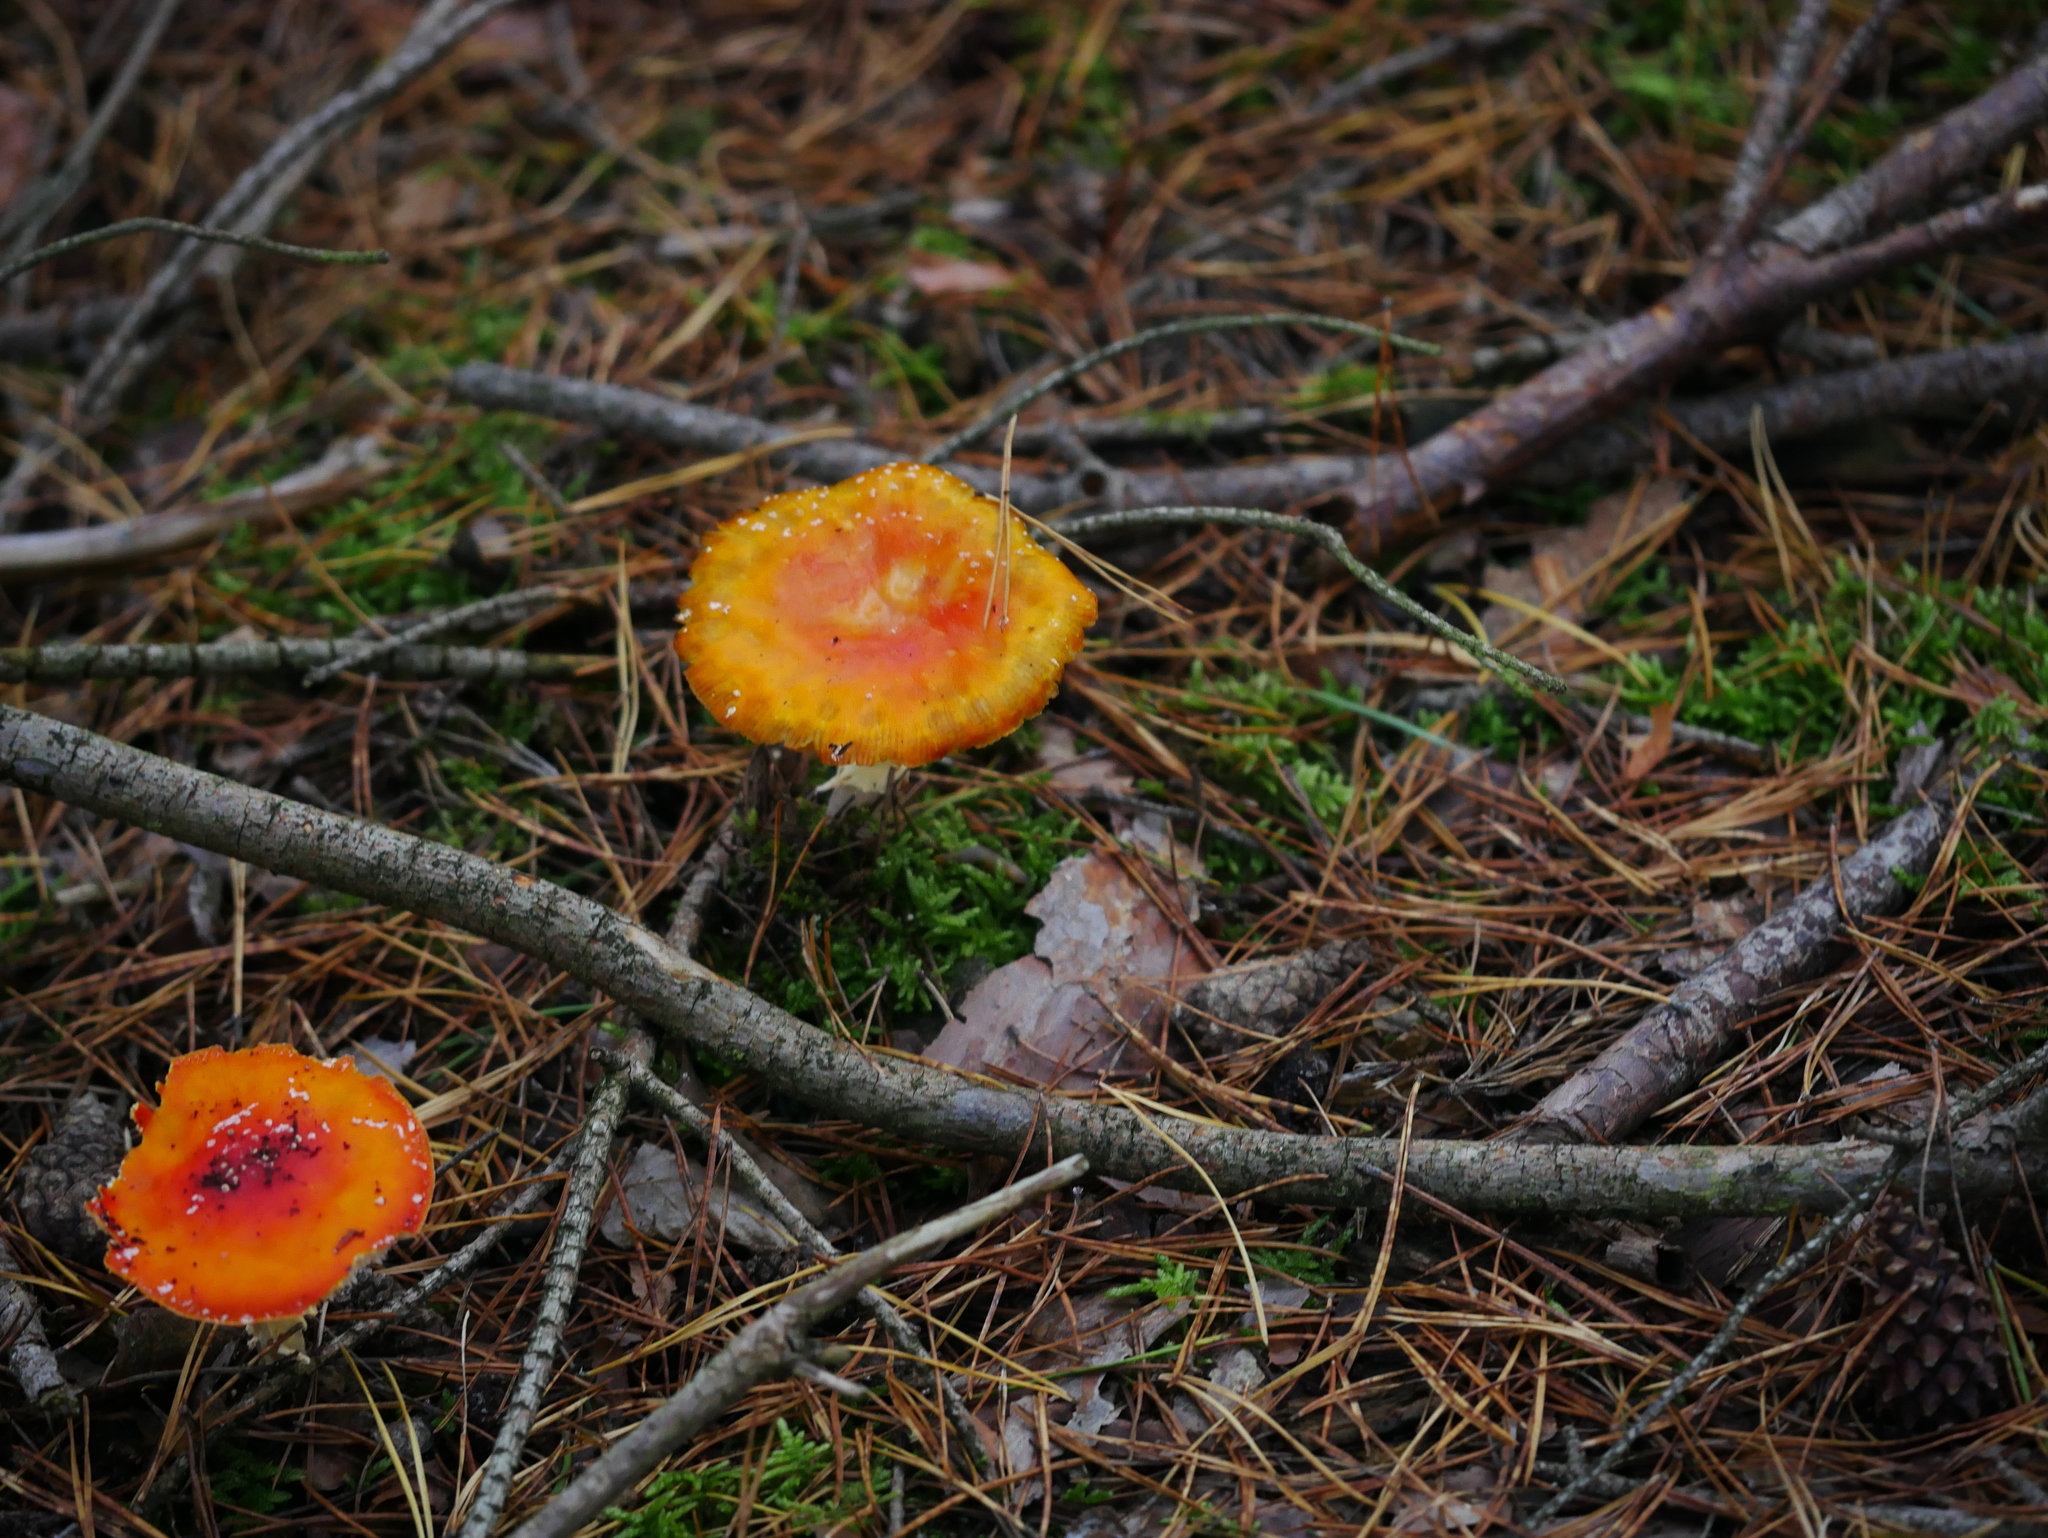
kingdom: Fungi
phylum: Basidiomycota
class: Agaricomycetes
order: Agaricales
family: Amanitaceae
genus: Amanita
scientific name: Amanita muscaria
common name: Fly agaric
